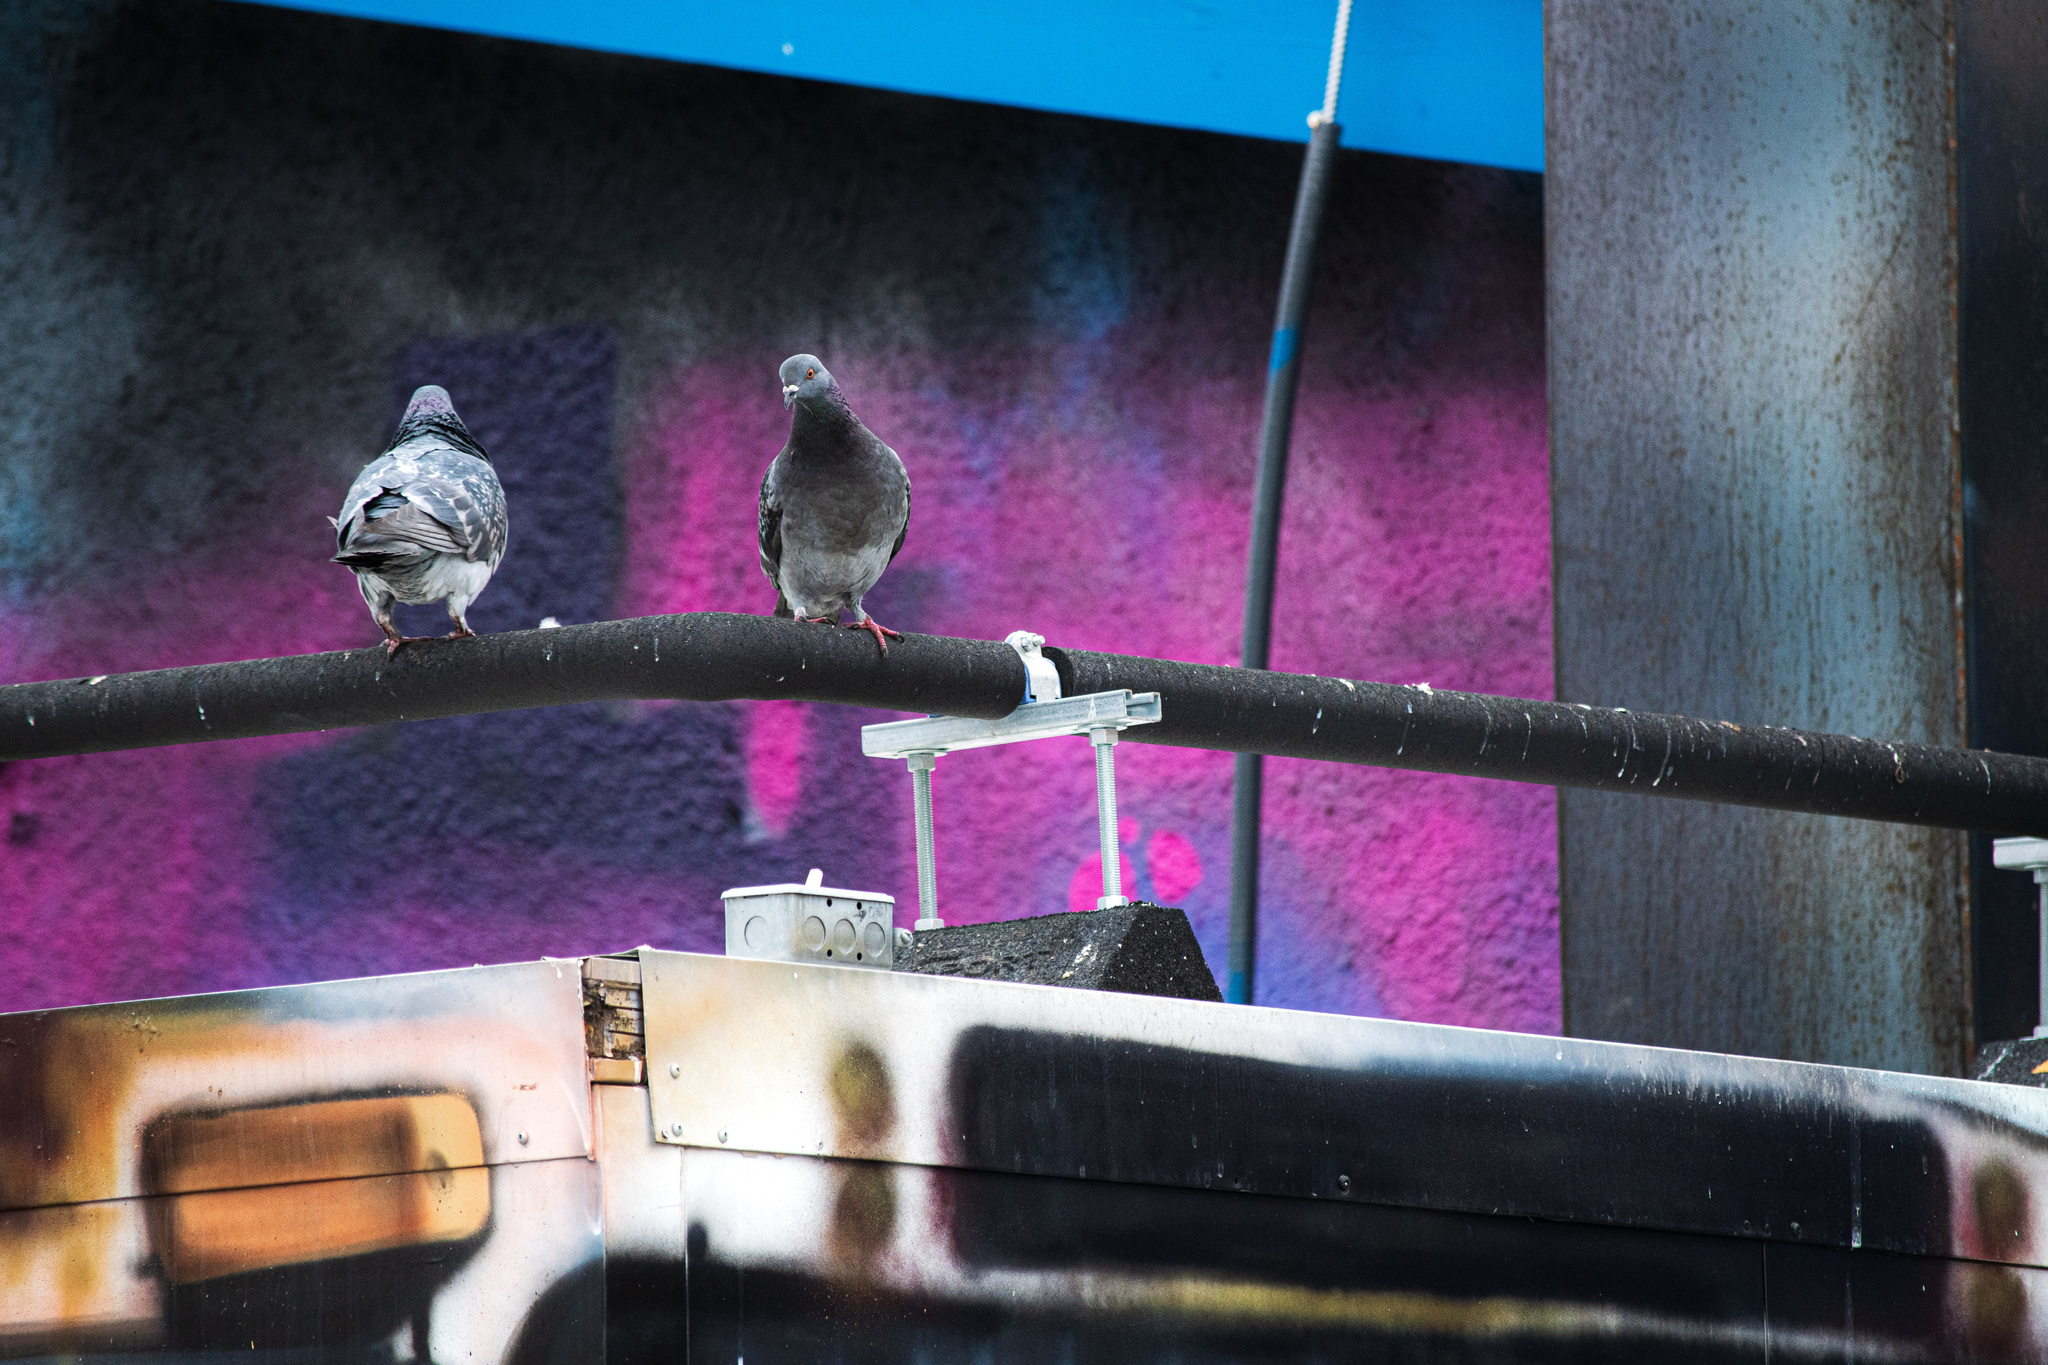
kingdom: Animalia
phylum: Chordata
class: Aves
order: Columbiformes
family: Columbidae
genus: Columba
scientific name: Columba livia
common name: Rock pigeon
